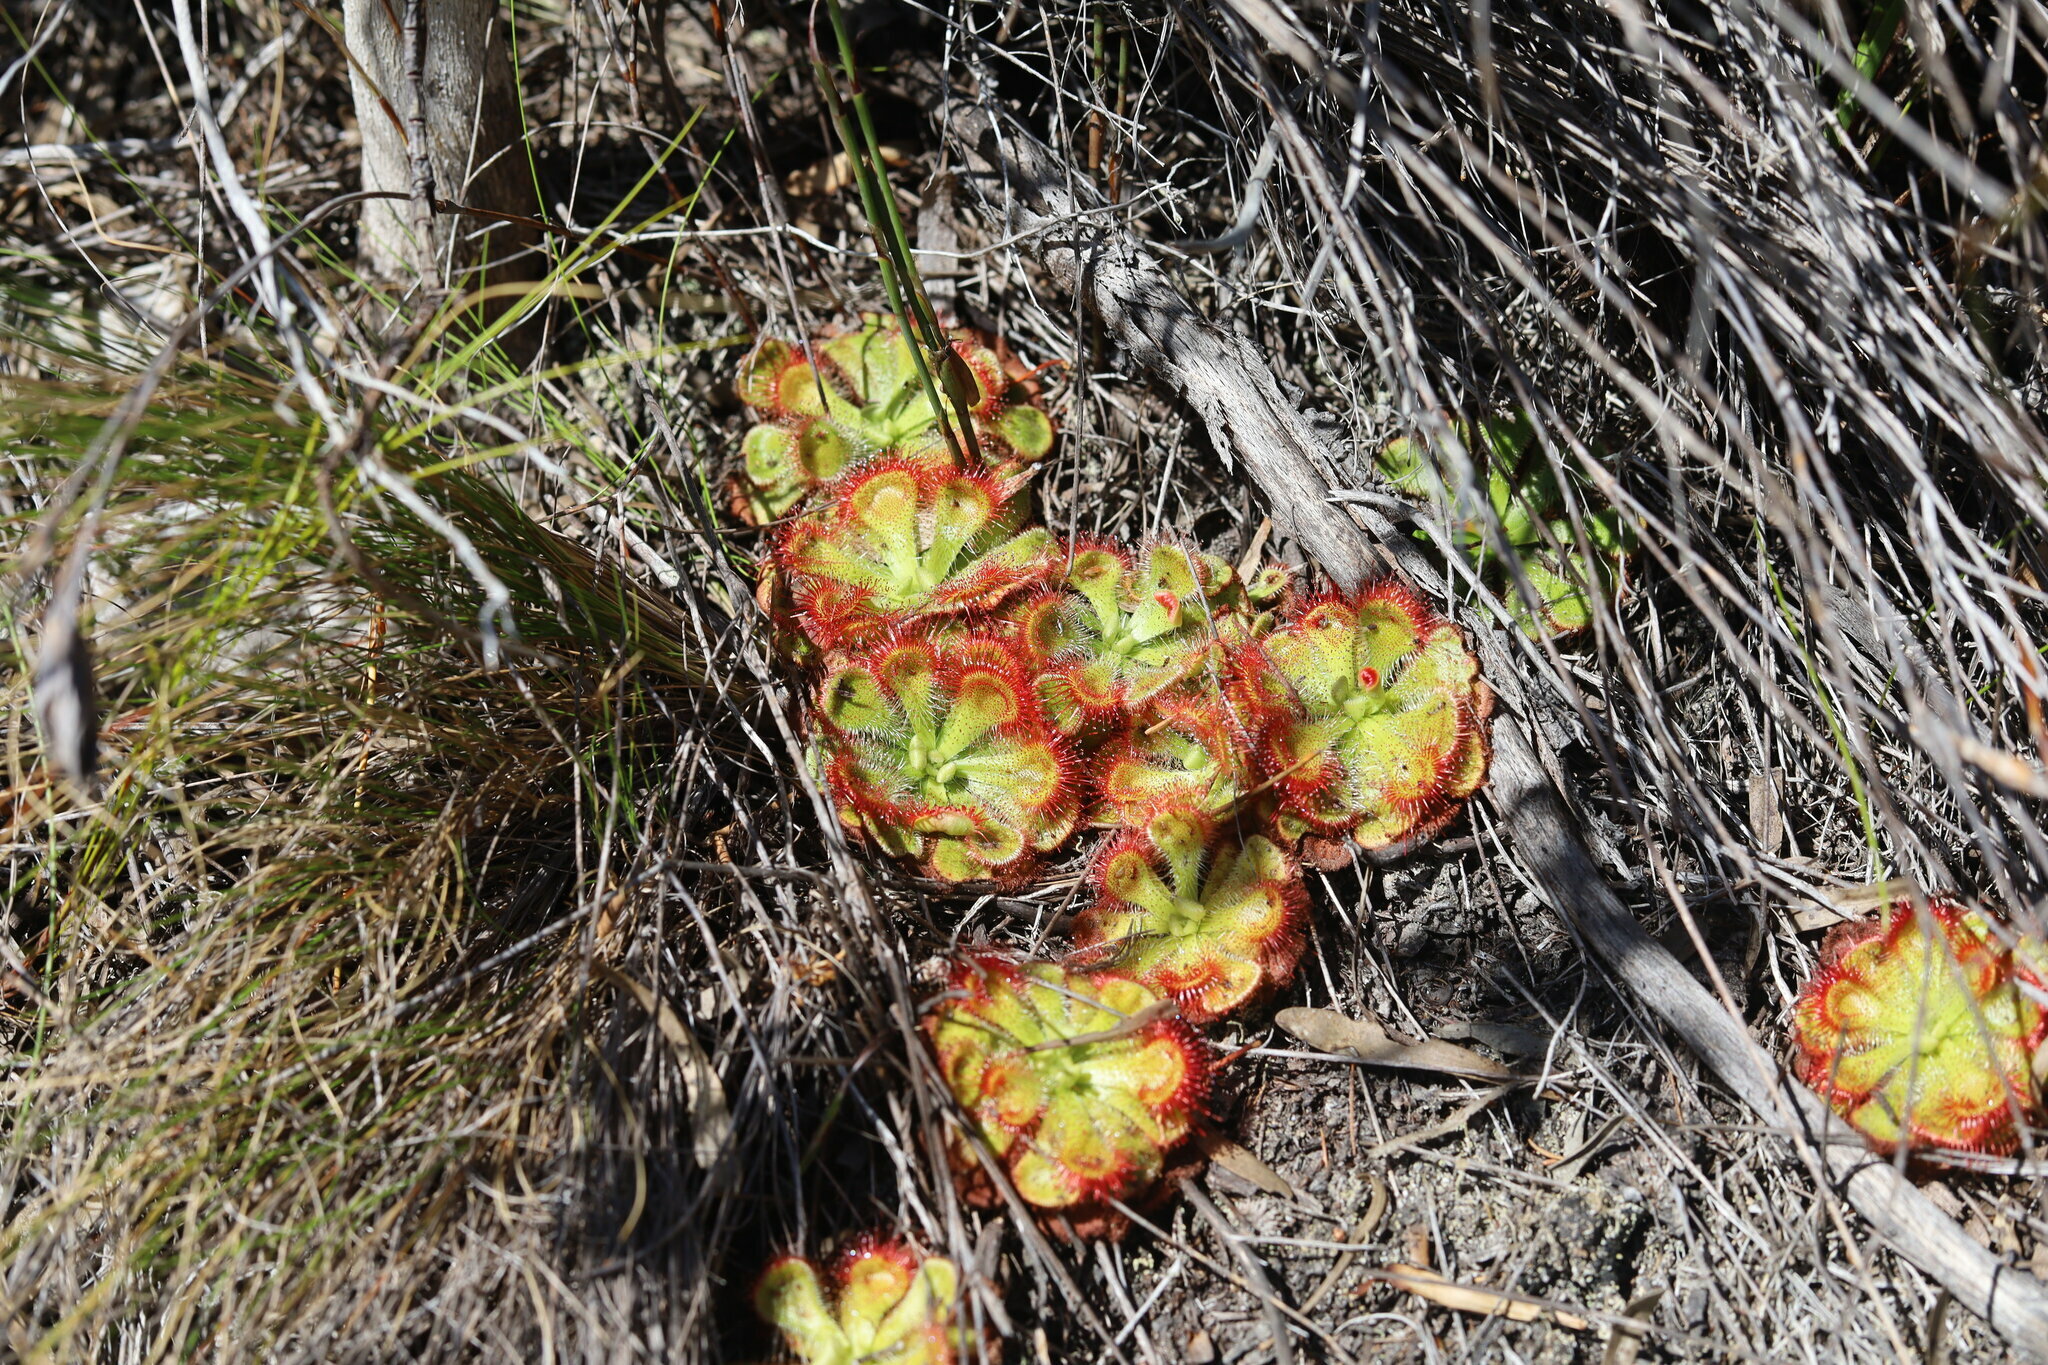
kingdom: Plantae
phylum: Tracheophyta
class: Magnoliopsida
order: Caryophyllales
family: Droseraceae
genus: Drosera
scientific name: Drosera xerophila
